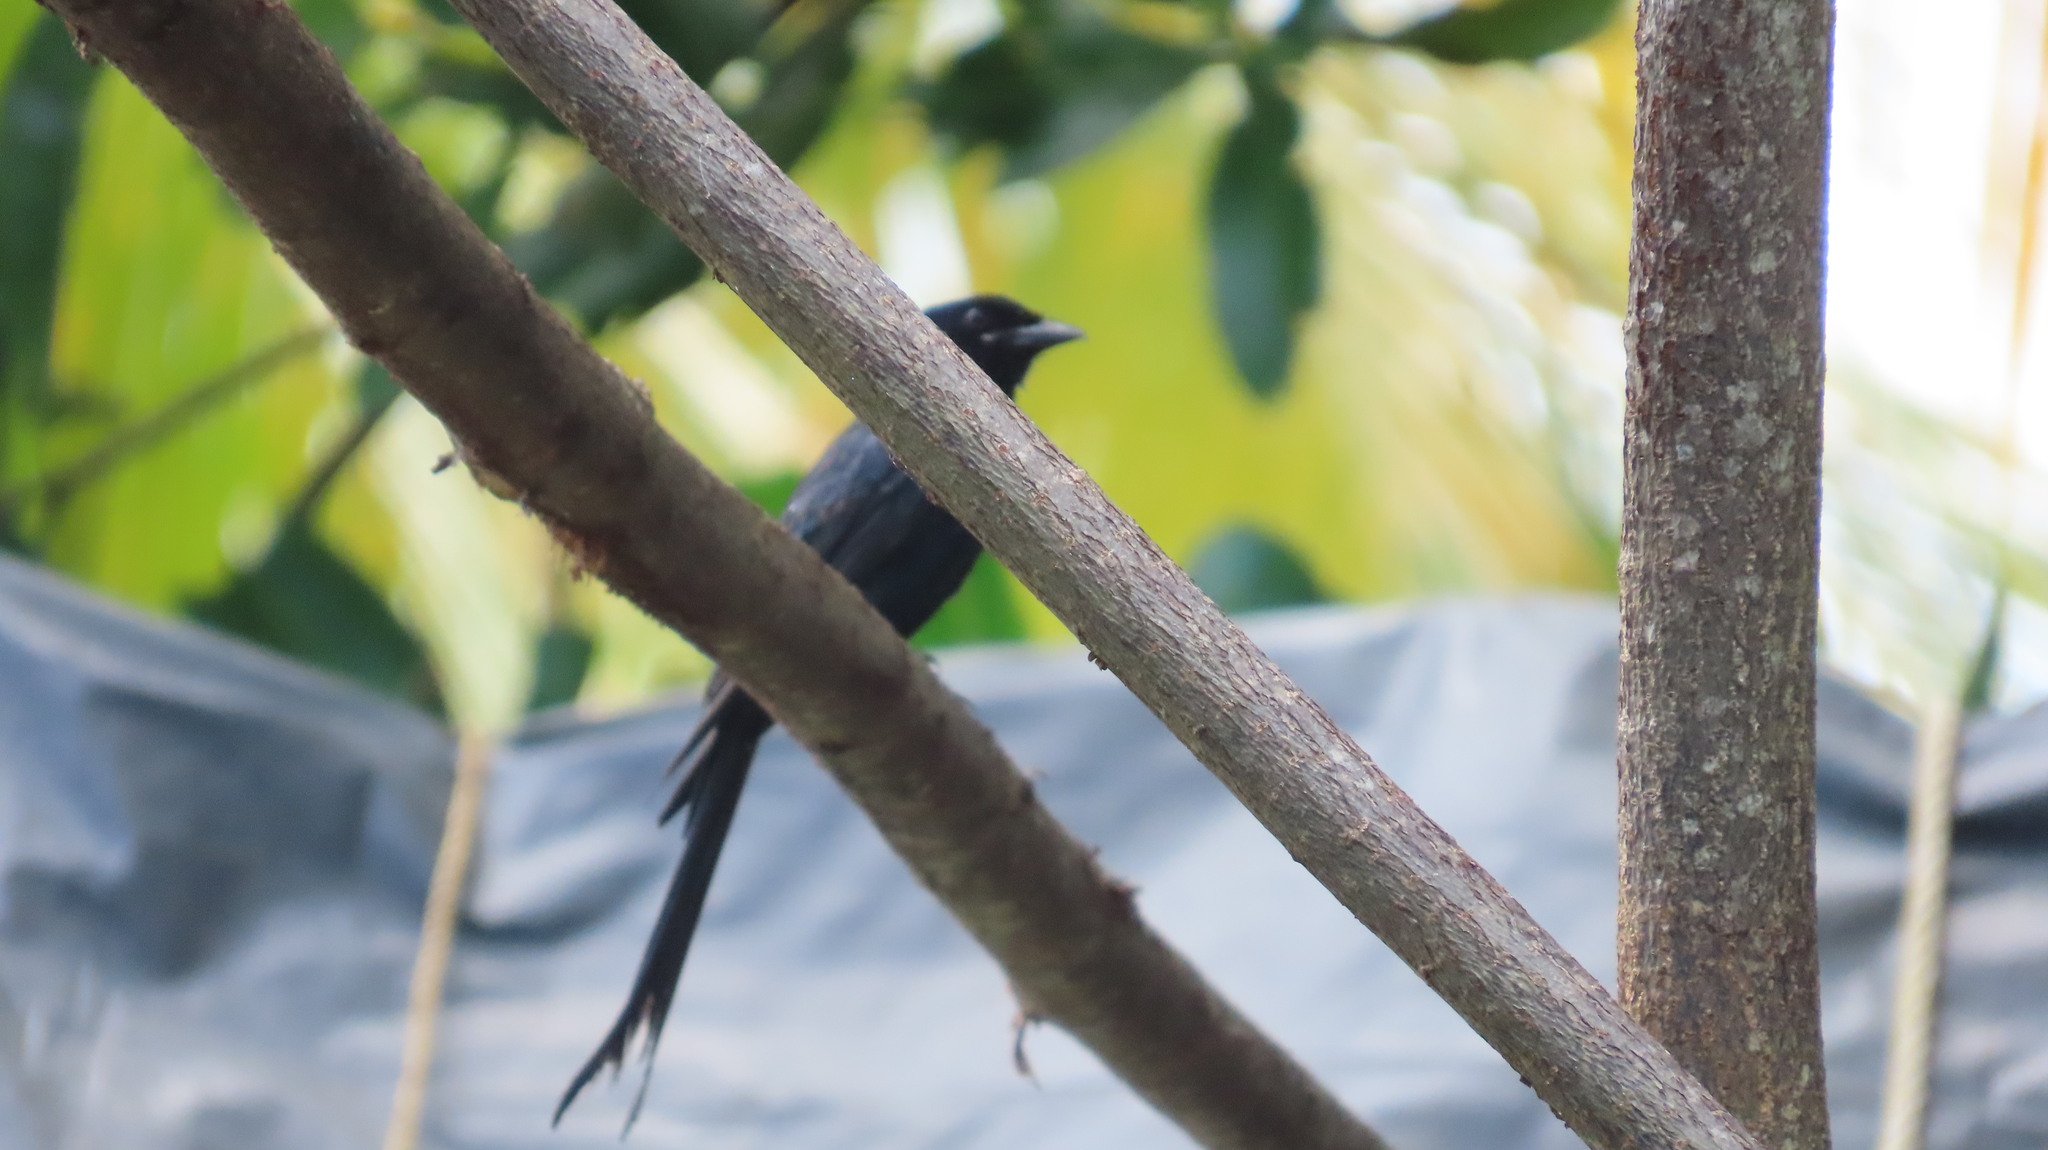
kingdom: Animalia
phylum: Chordata
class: Aves
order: Passeriformes
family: Dicruridae
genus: Dicrurus
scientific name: Dicrurus macrocercus
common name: Black drongo
